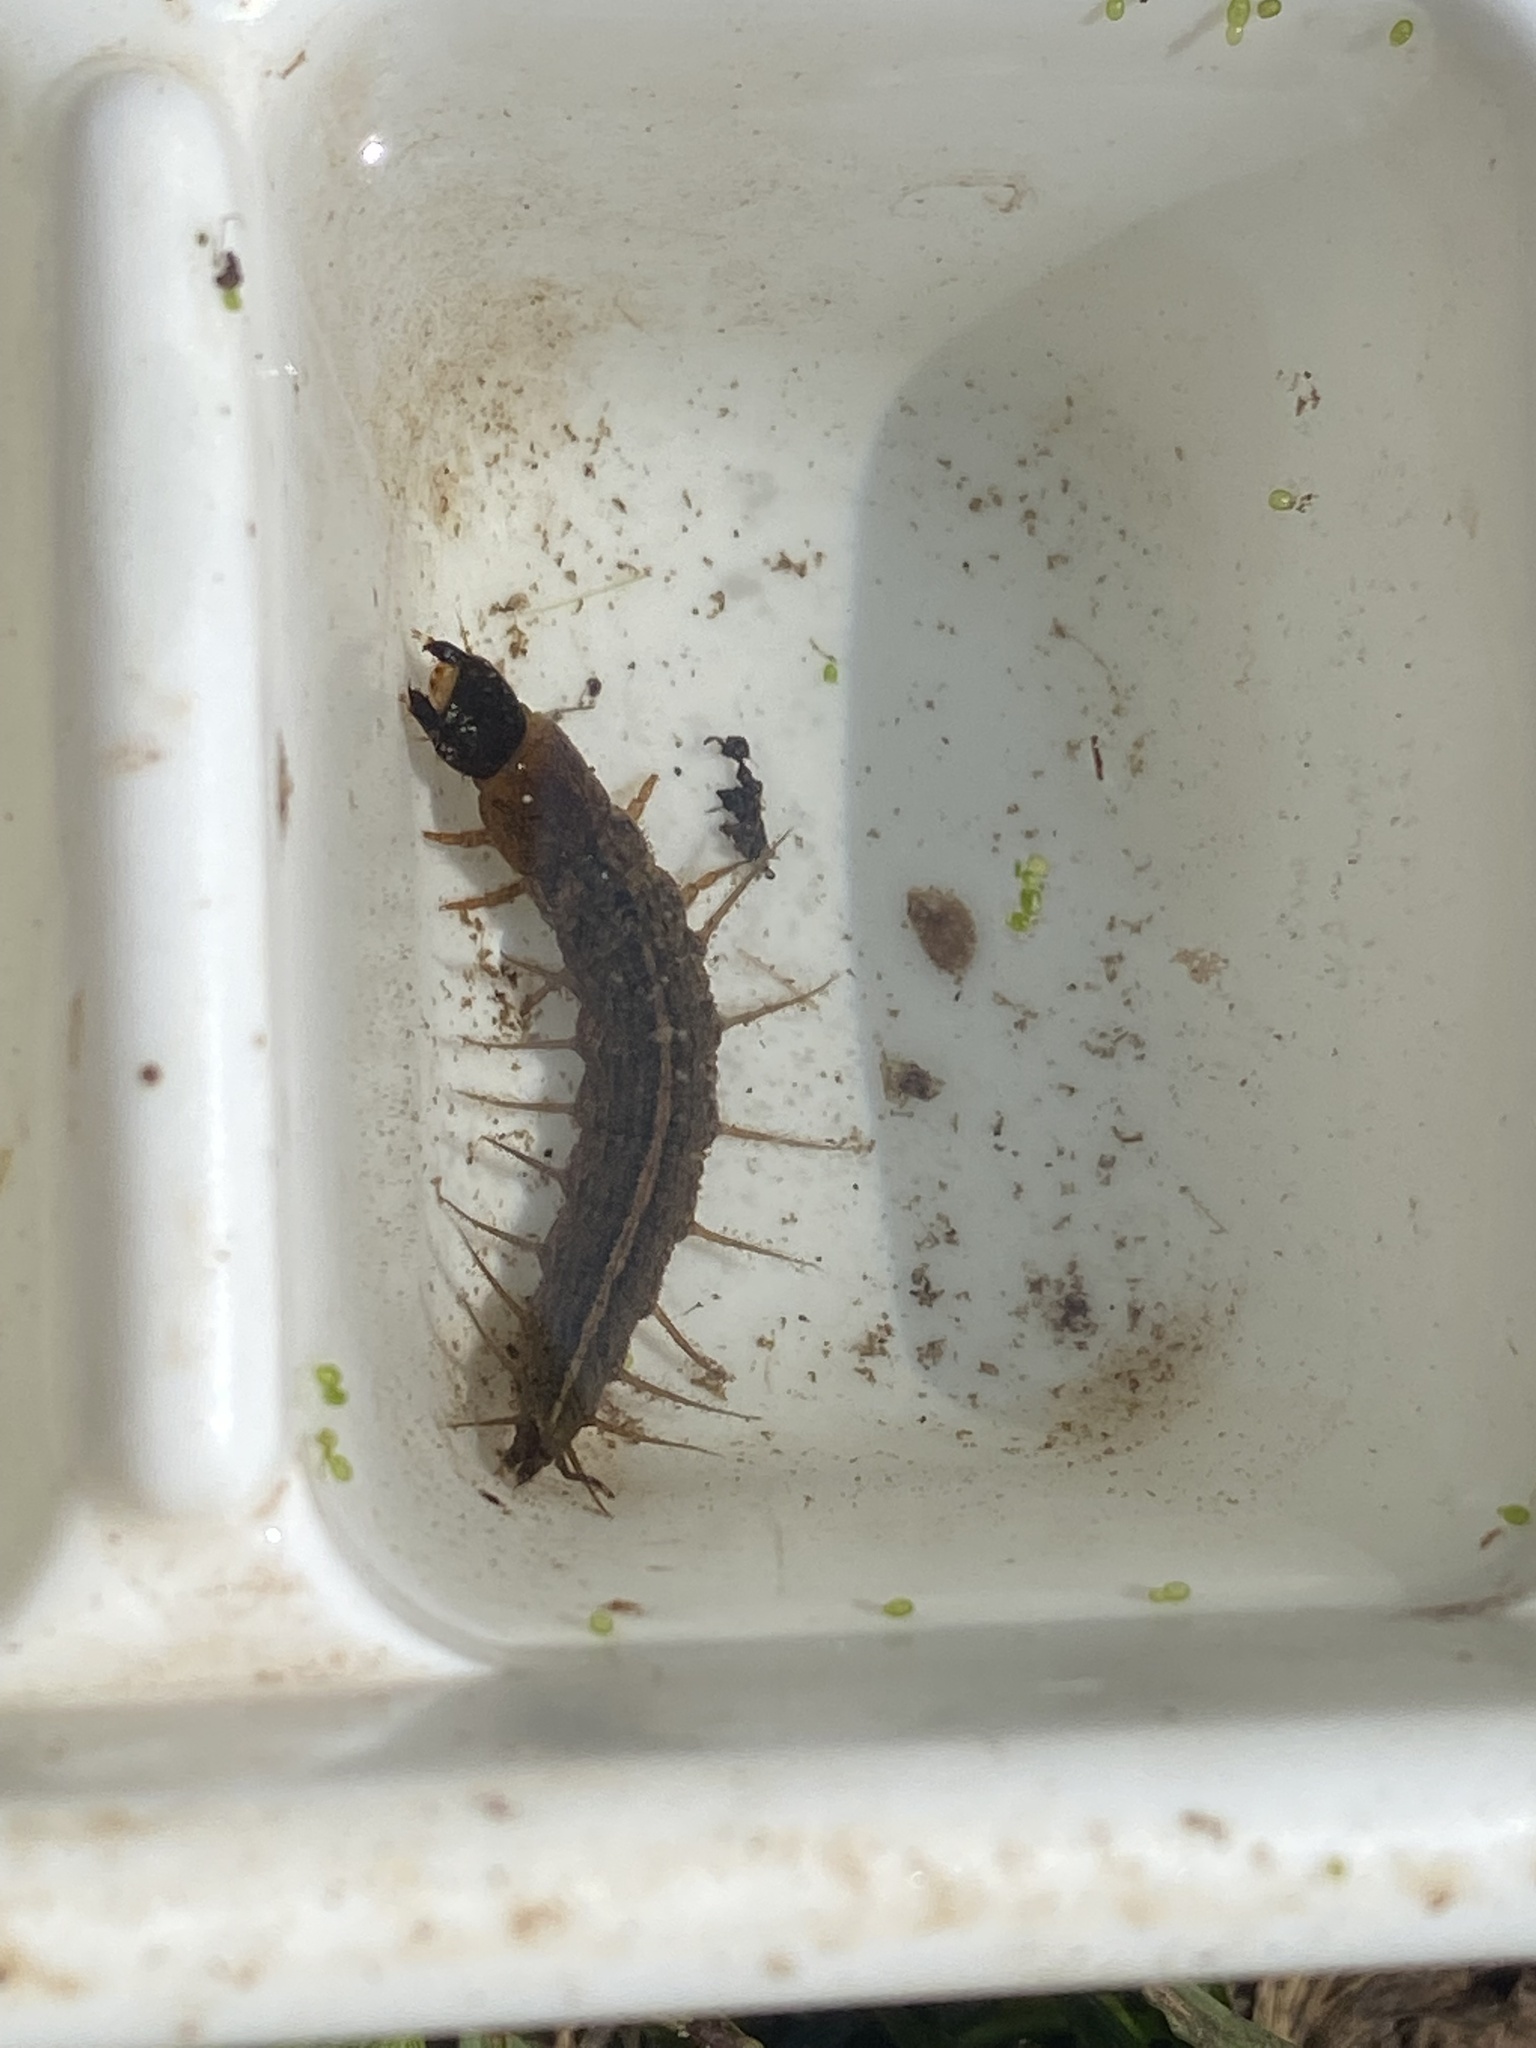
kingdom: Animalia
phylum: Arthropoda
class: Insecta
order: Megaloptera
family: Corydalidae
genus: Chauliodes
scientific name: Chauliodes pectinicornis
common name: Summer fishfly
